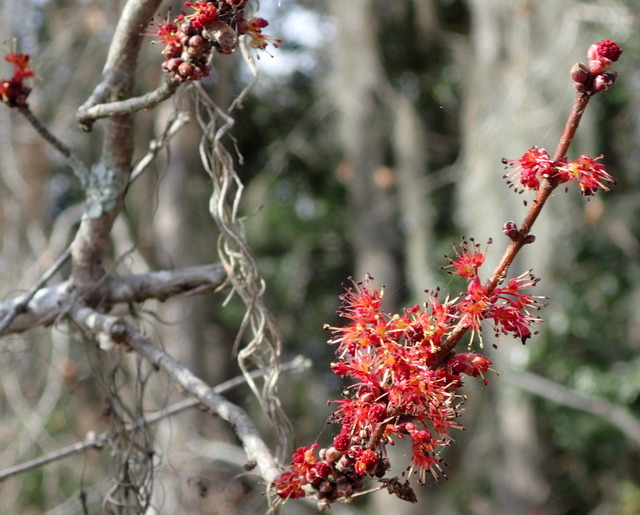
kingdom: Plantae
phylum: Tracheophyta
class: Magnoliopsida
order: Sapindales
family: Sapindaceae
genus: Acer
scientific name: Acer rubrum
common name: Red maple
